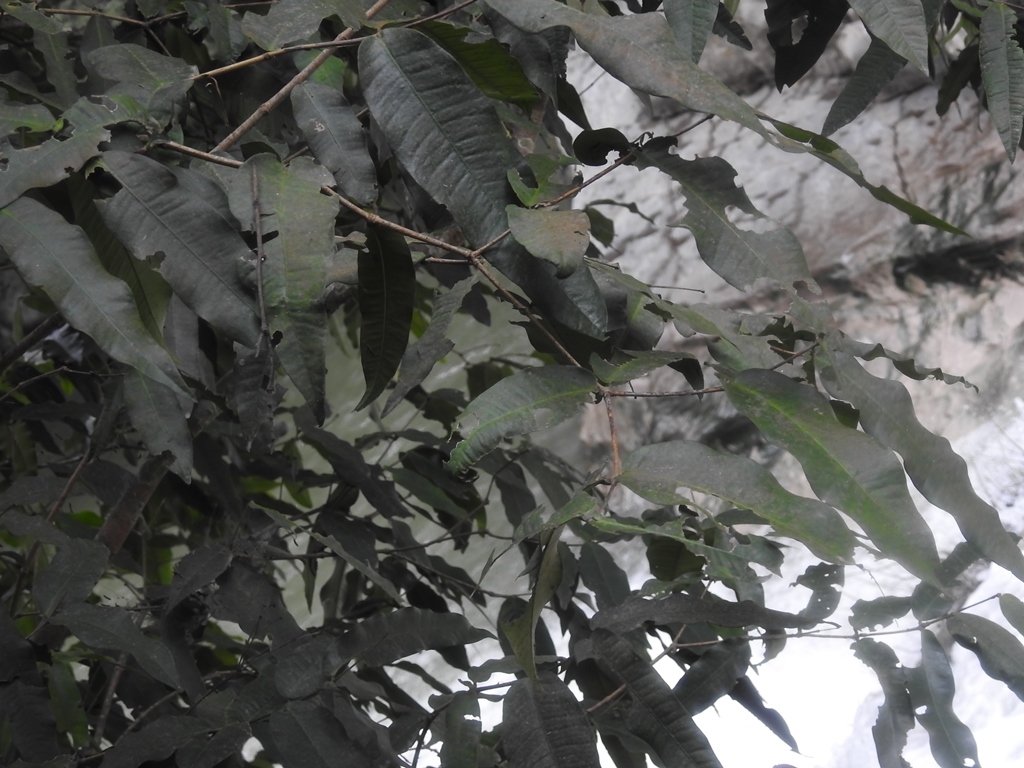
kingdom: Plantae
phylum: Tracheophyta
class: Magnoliopsida
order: Myrtales
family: Myrtaceae
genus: Myrcia
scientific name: Myrcia chiapensis
